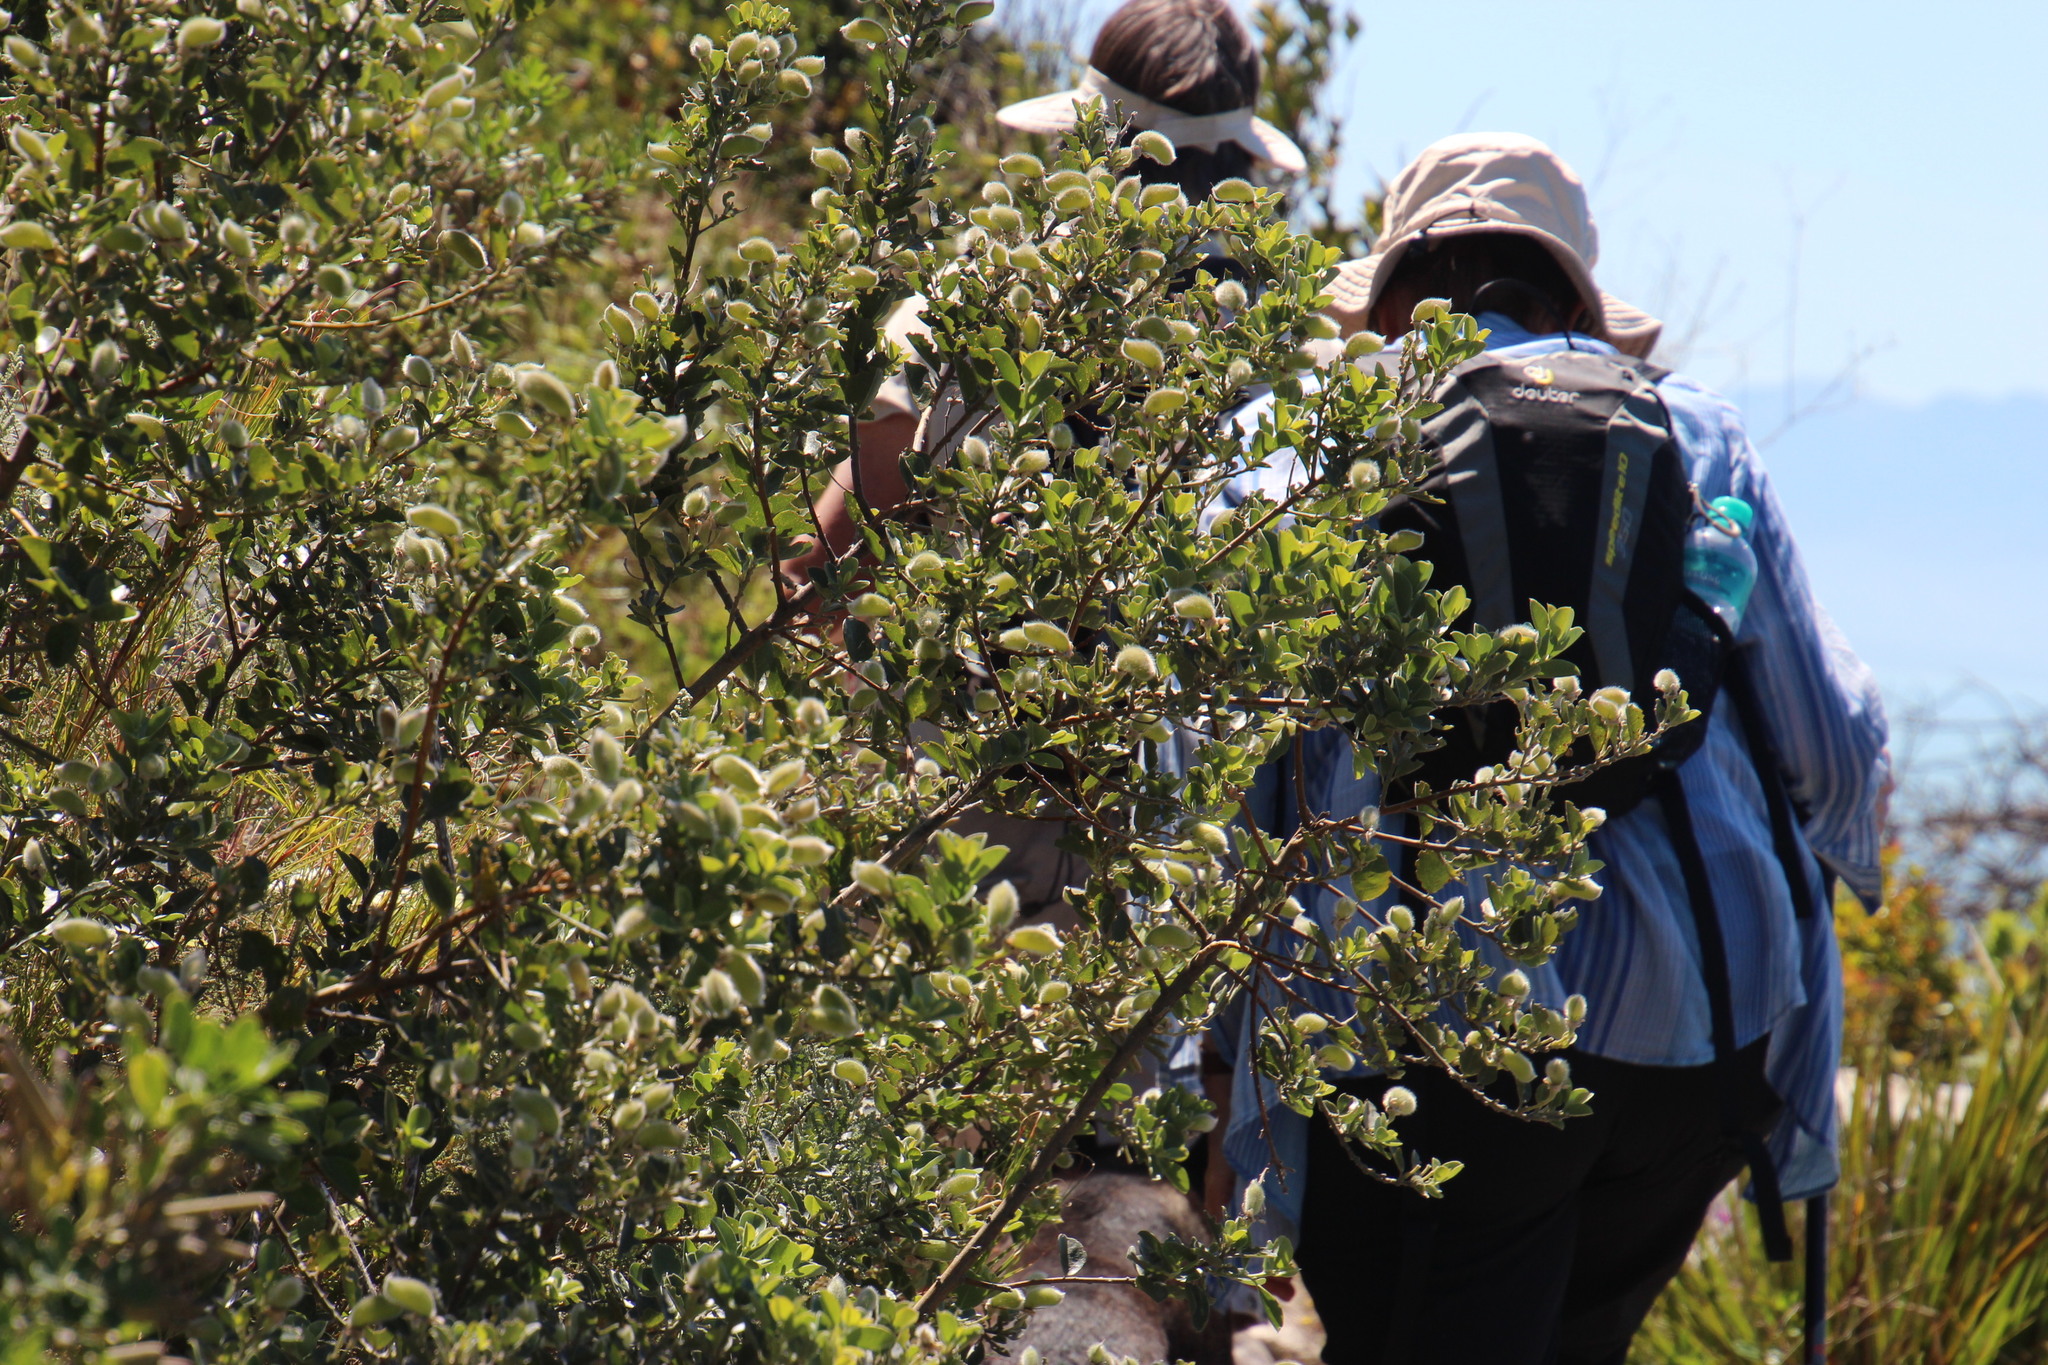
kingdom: Plantae
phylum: Tracheophyta
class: Magnoliopsida
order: Fabales
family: Fabaceae
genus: Podalyria
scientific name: Podalyria calyptrata
